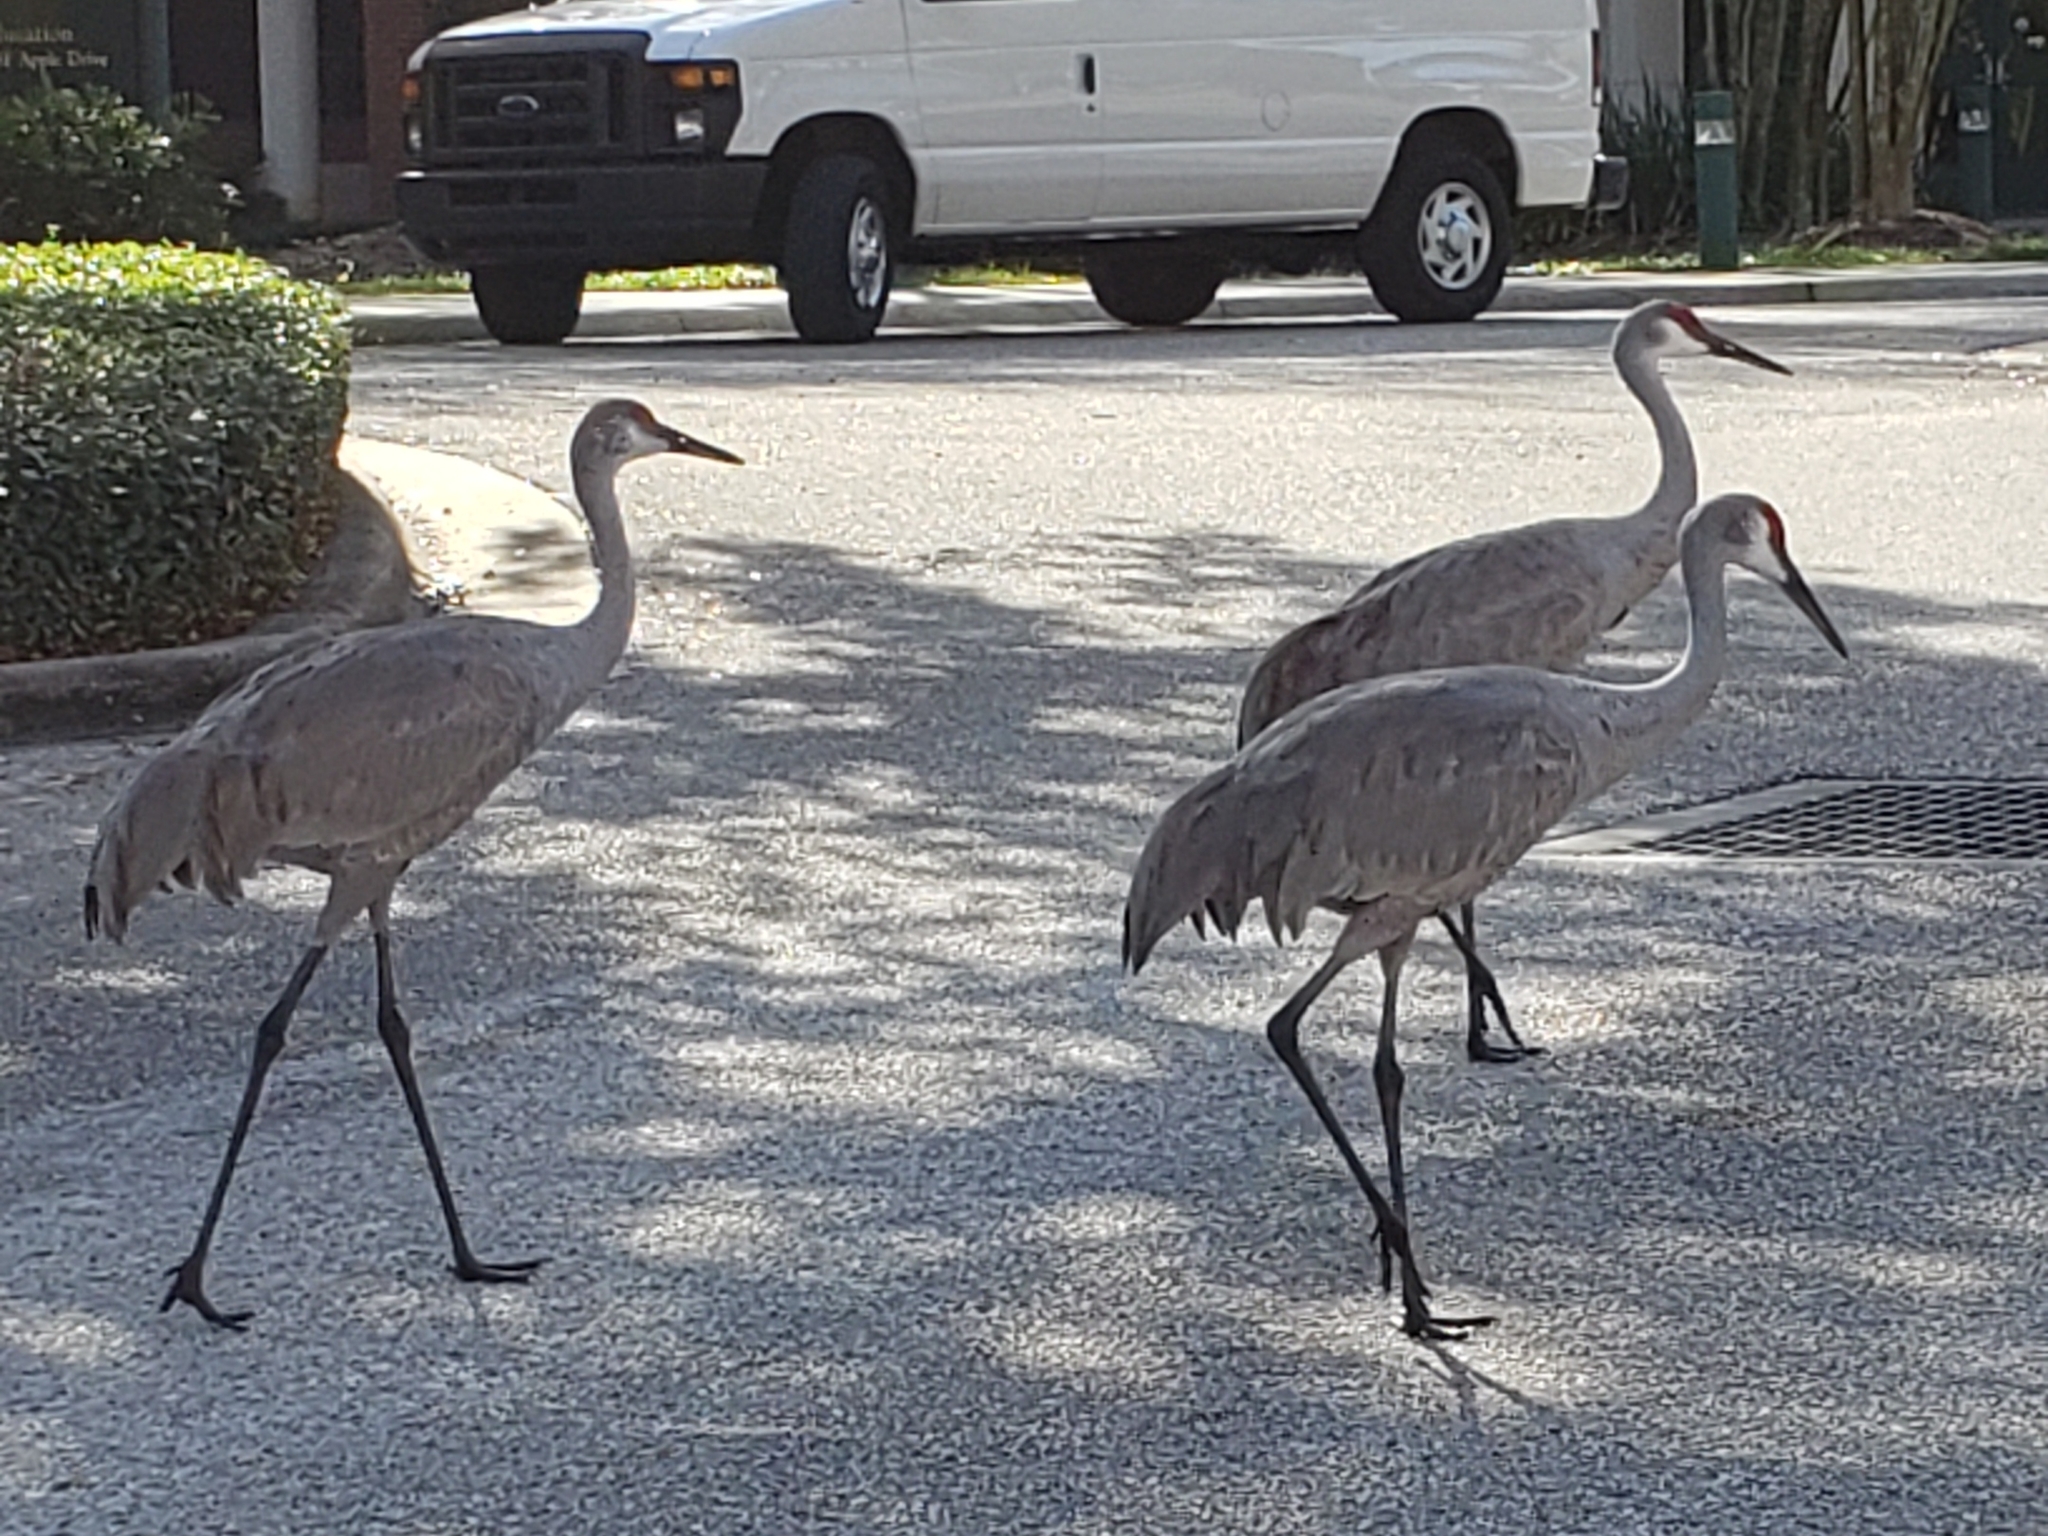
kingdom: Animalia
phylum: Chordata
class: Aves
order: Gruiformes
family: Gruidae
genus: Grus
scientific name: Grus canadensis
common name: Sandhill crane
